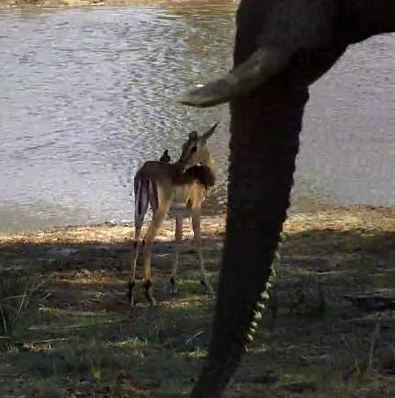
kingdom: Animalia
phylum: Chordata
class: Mammalia
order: Artiodactyla
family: Bovidae
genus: Aepyceros
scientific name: Aepyceros melampus
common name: Impala
